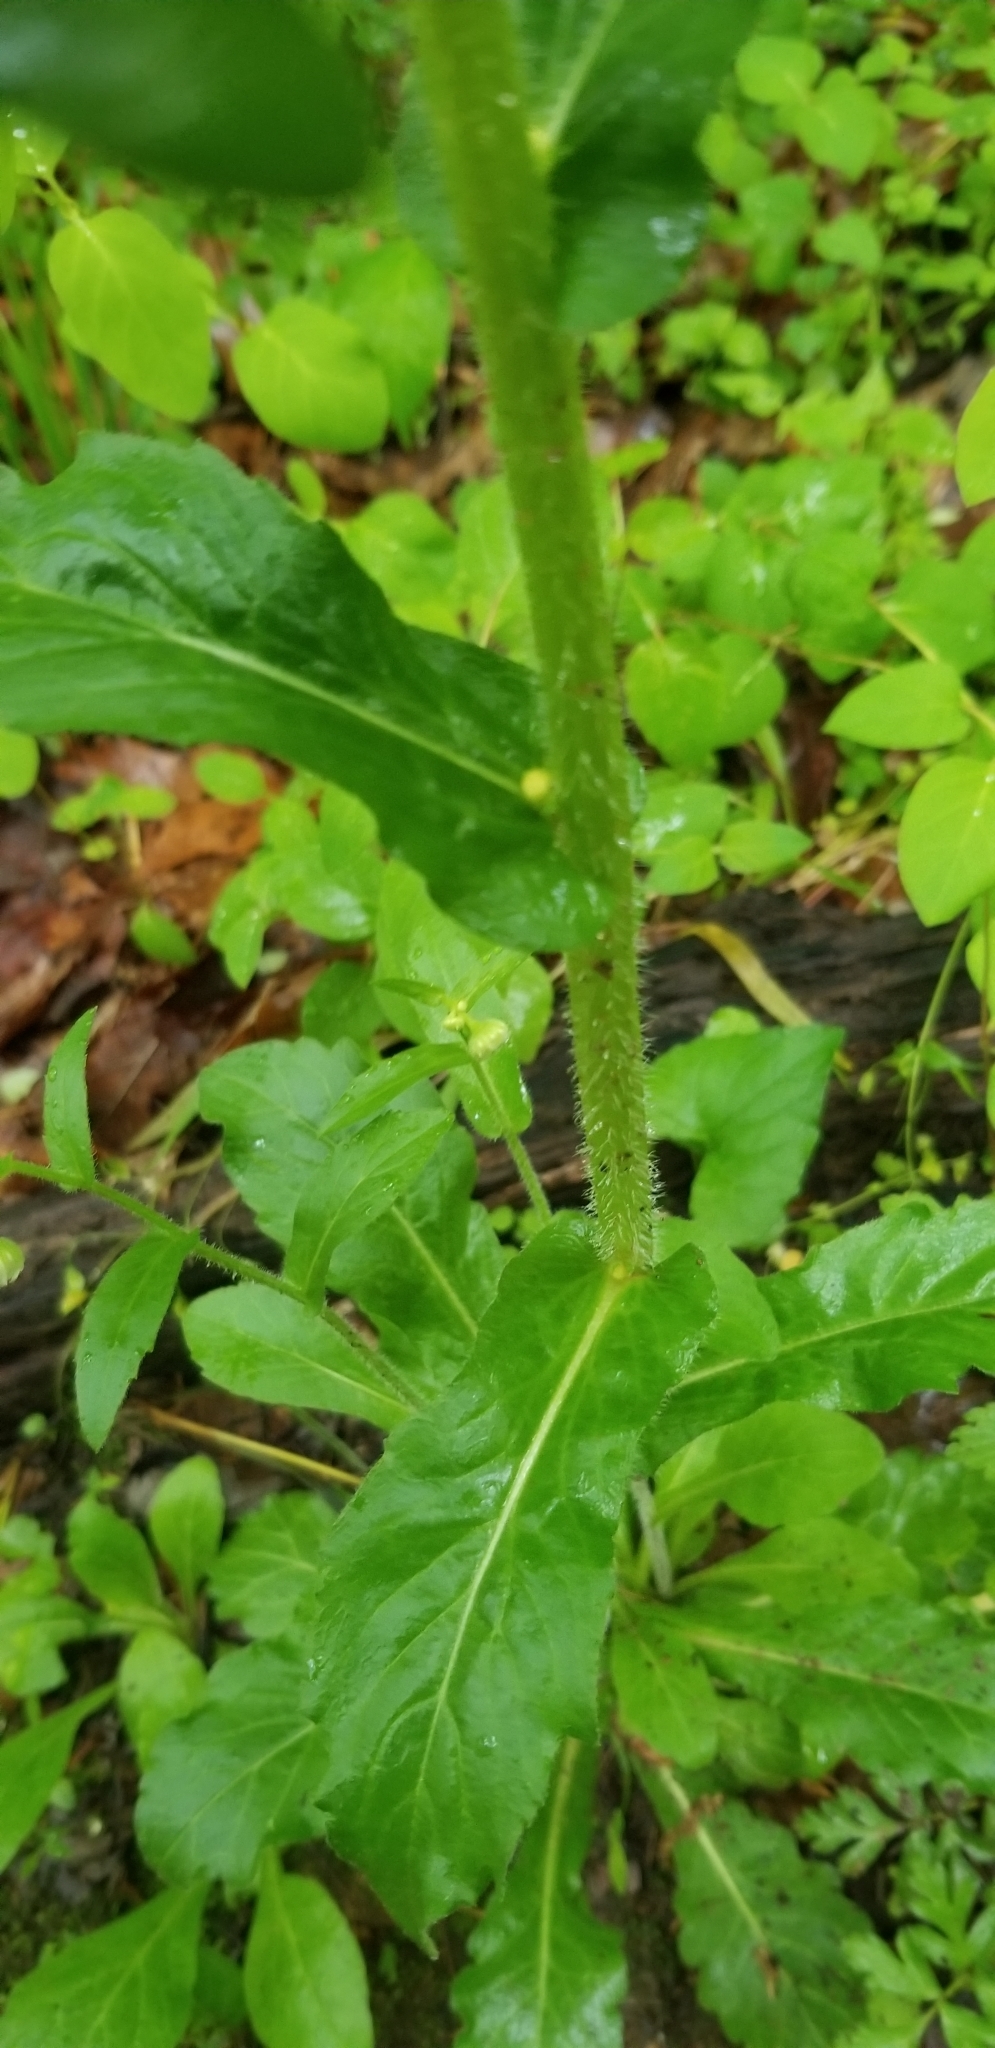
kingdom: Plantae
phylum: Tracheophyta
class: Magnoliopsida
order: Asterales
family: Asteraceae
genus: Erigeron
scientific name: Erigeron philadelphicus
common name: Robin's-plantain
